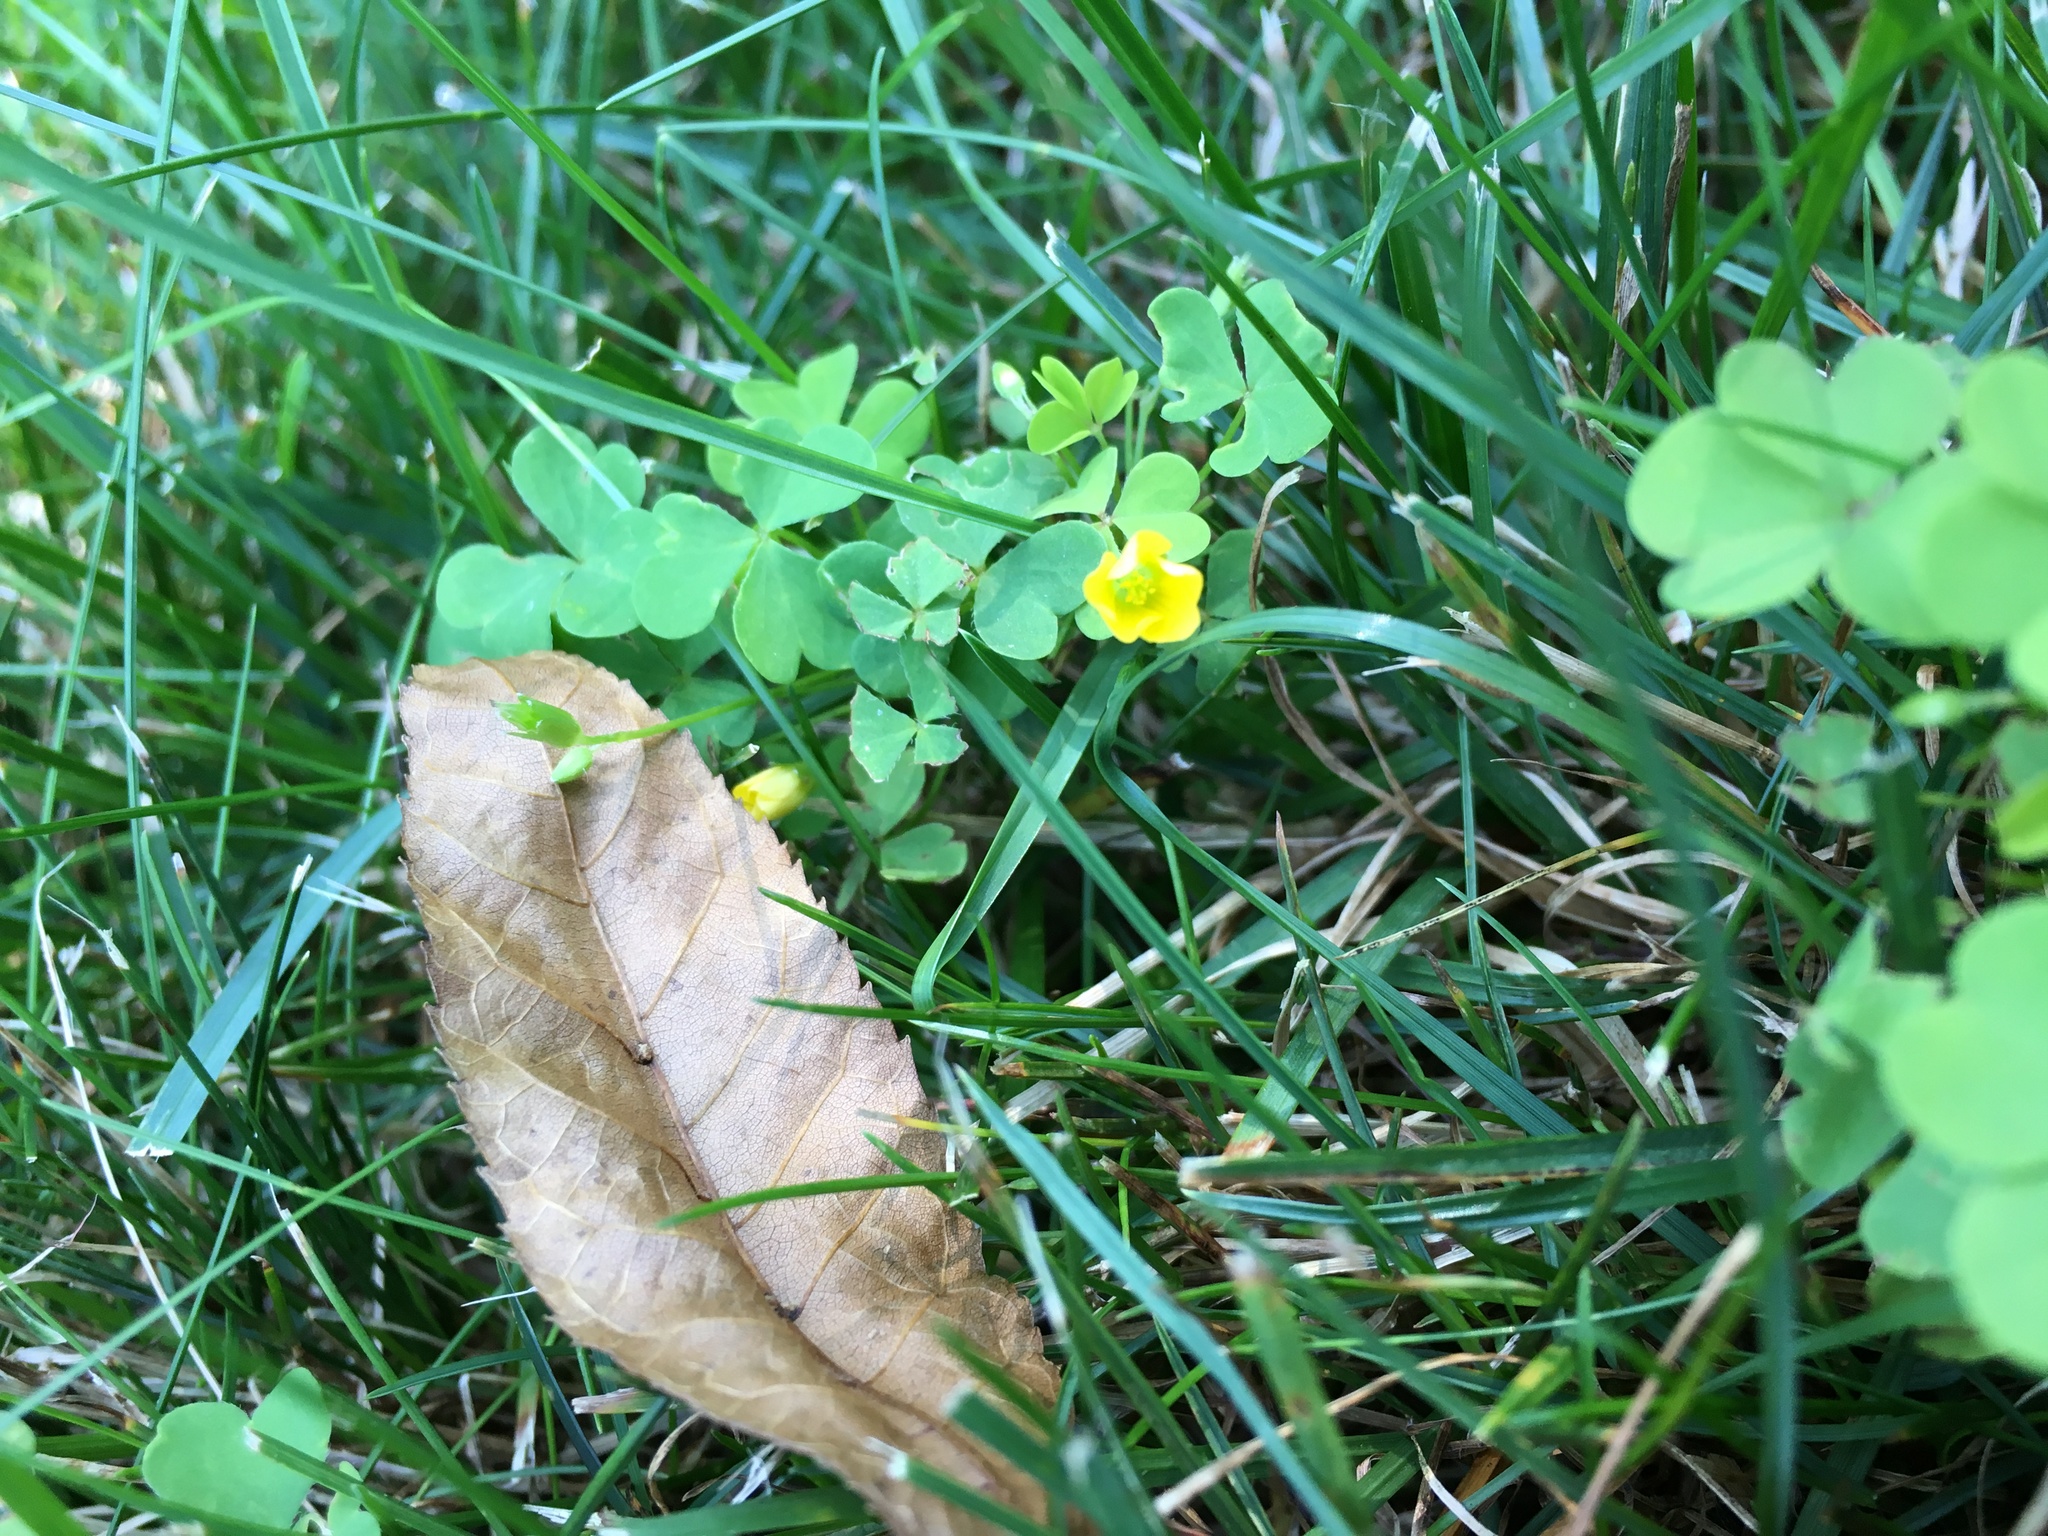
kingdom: Plantae
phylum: Tracheophyta
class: Magnoliopsida
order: Oxalidales
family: Oxalidaceae
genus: Oxalis
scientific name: Oxalis
